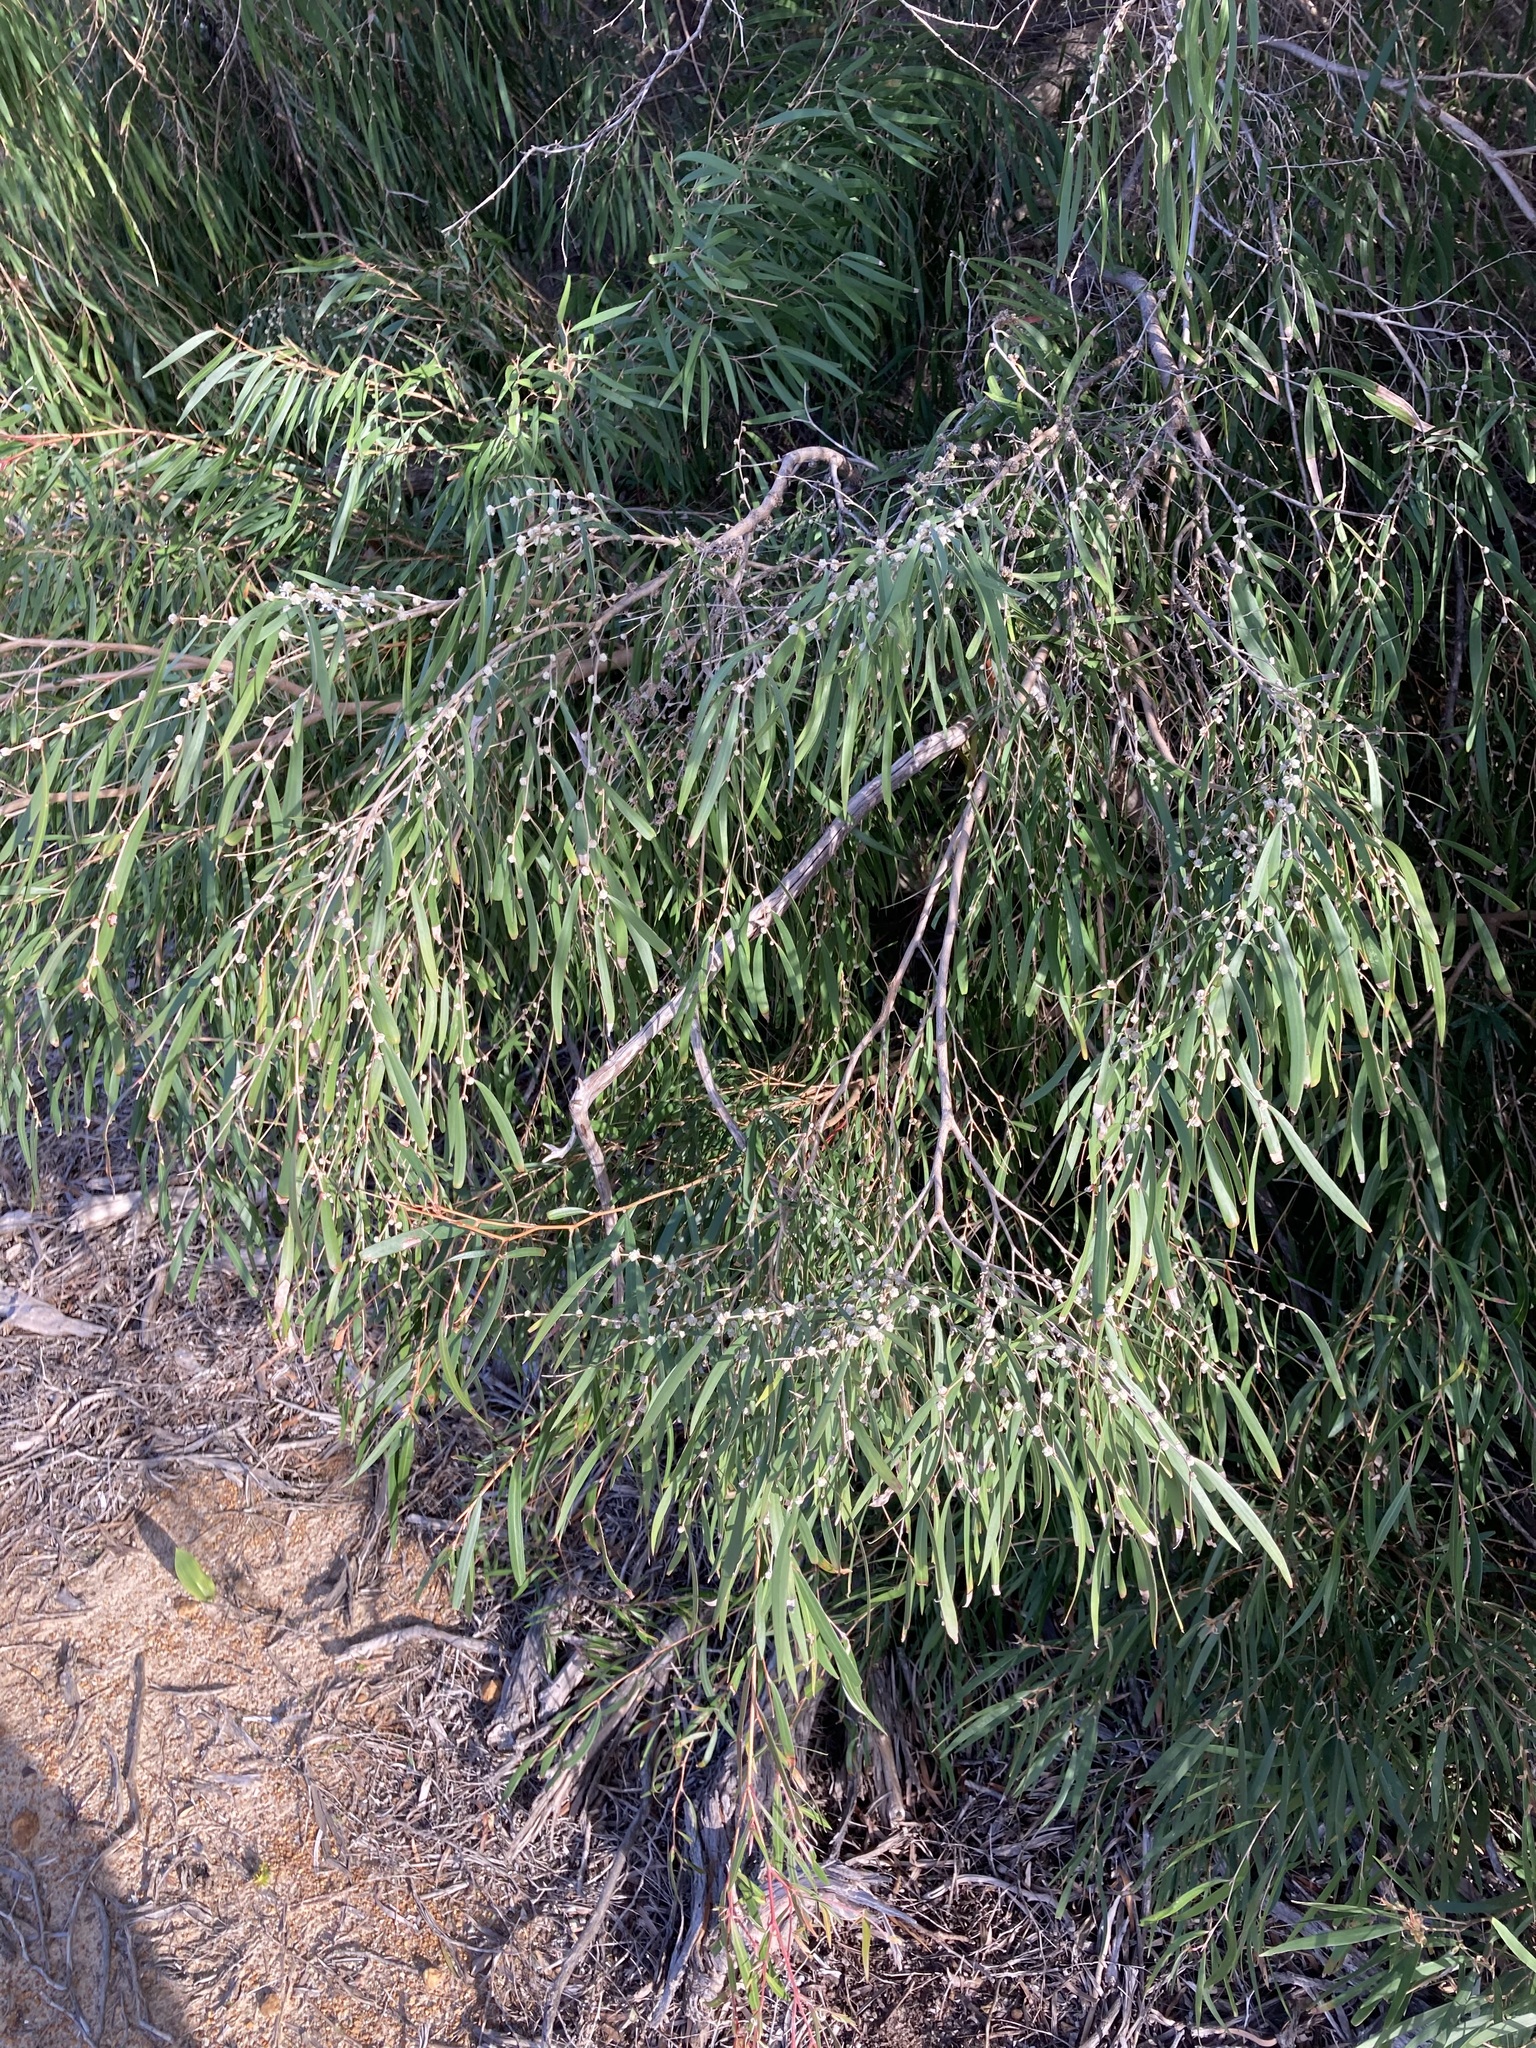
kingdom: Plantae
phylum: Tracheophyta
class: Magnoliopsida
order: Myrtales
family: Myrtaceae
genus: Agonis
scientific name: Agonis flexuosa
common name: Willow myrtle
